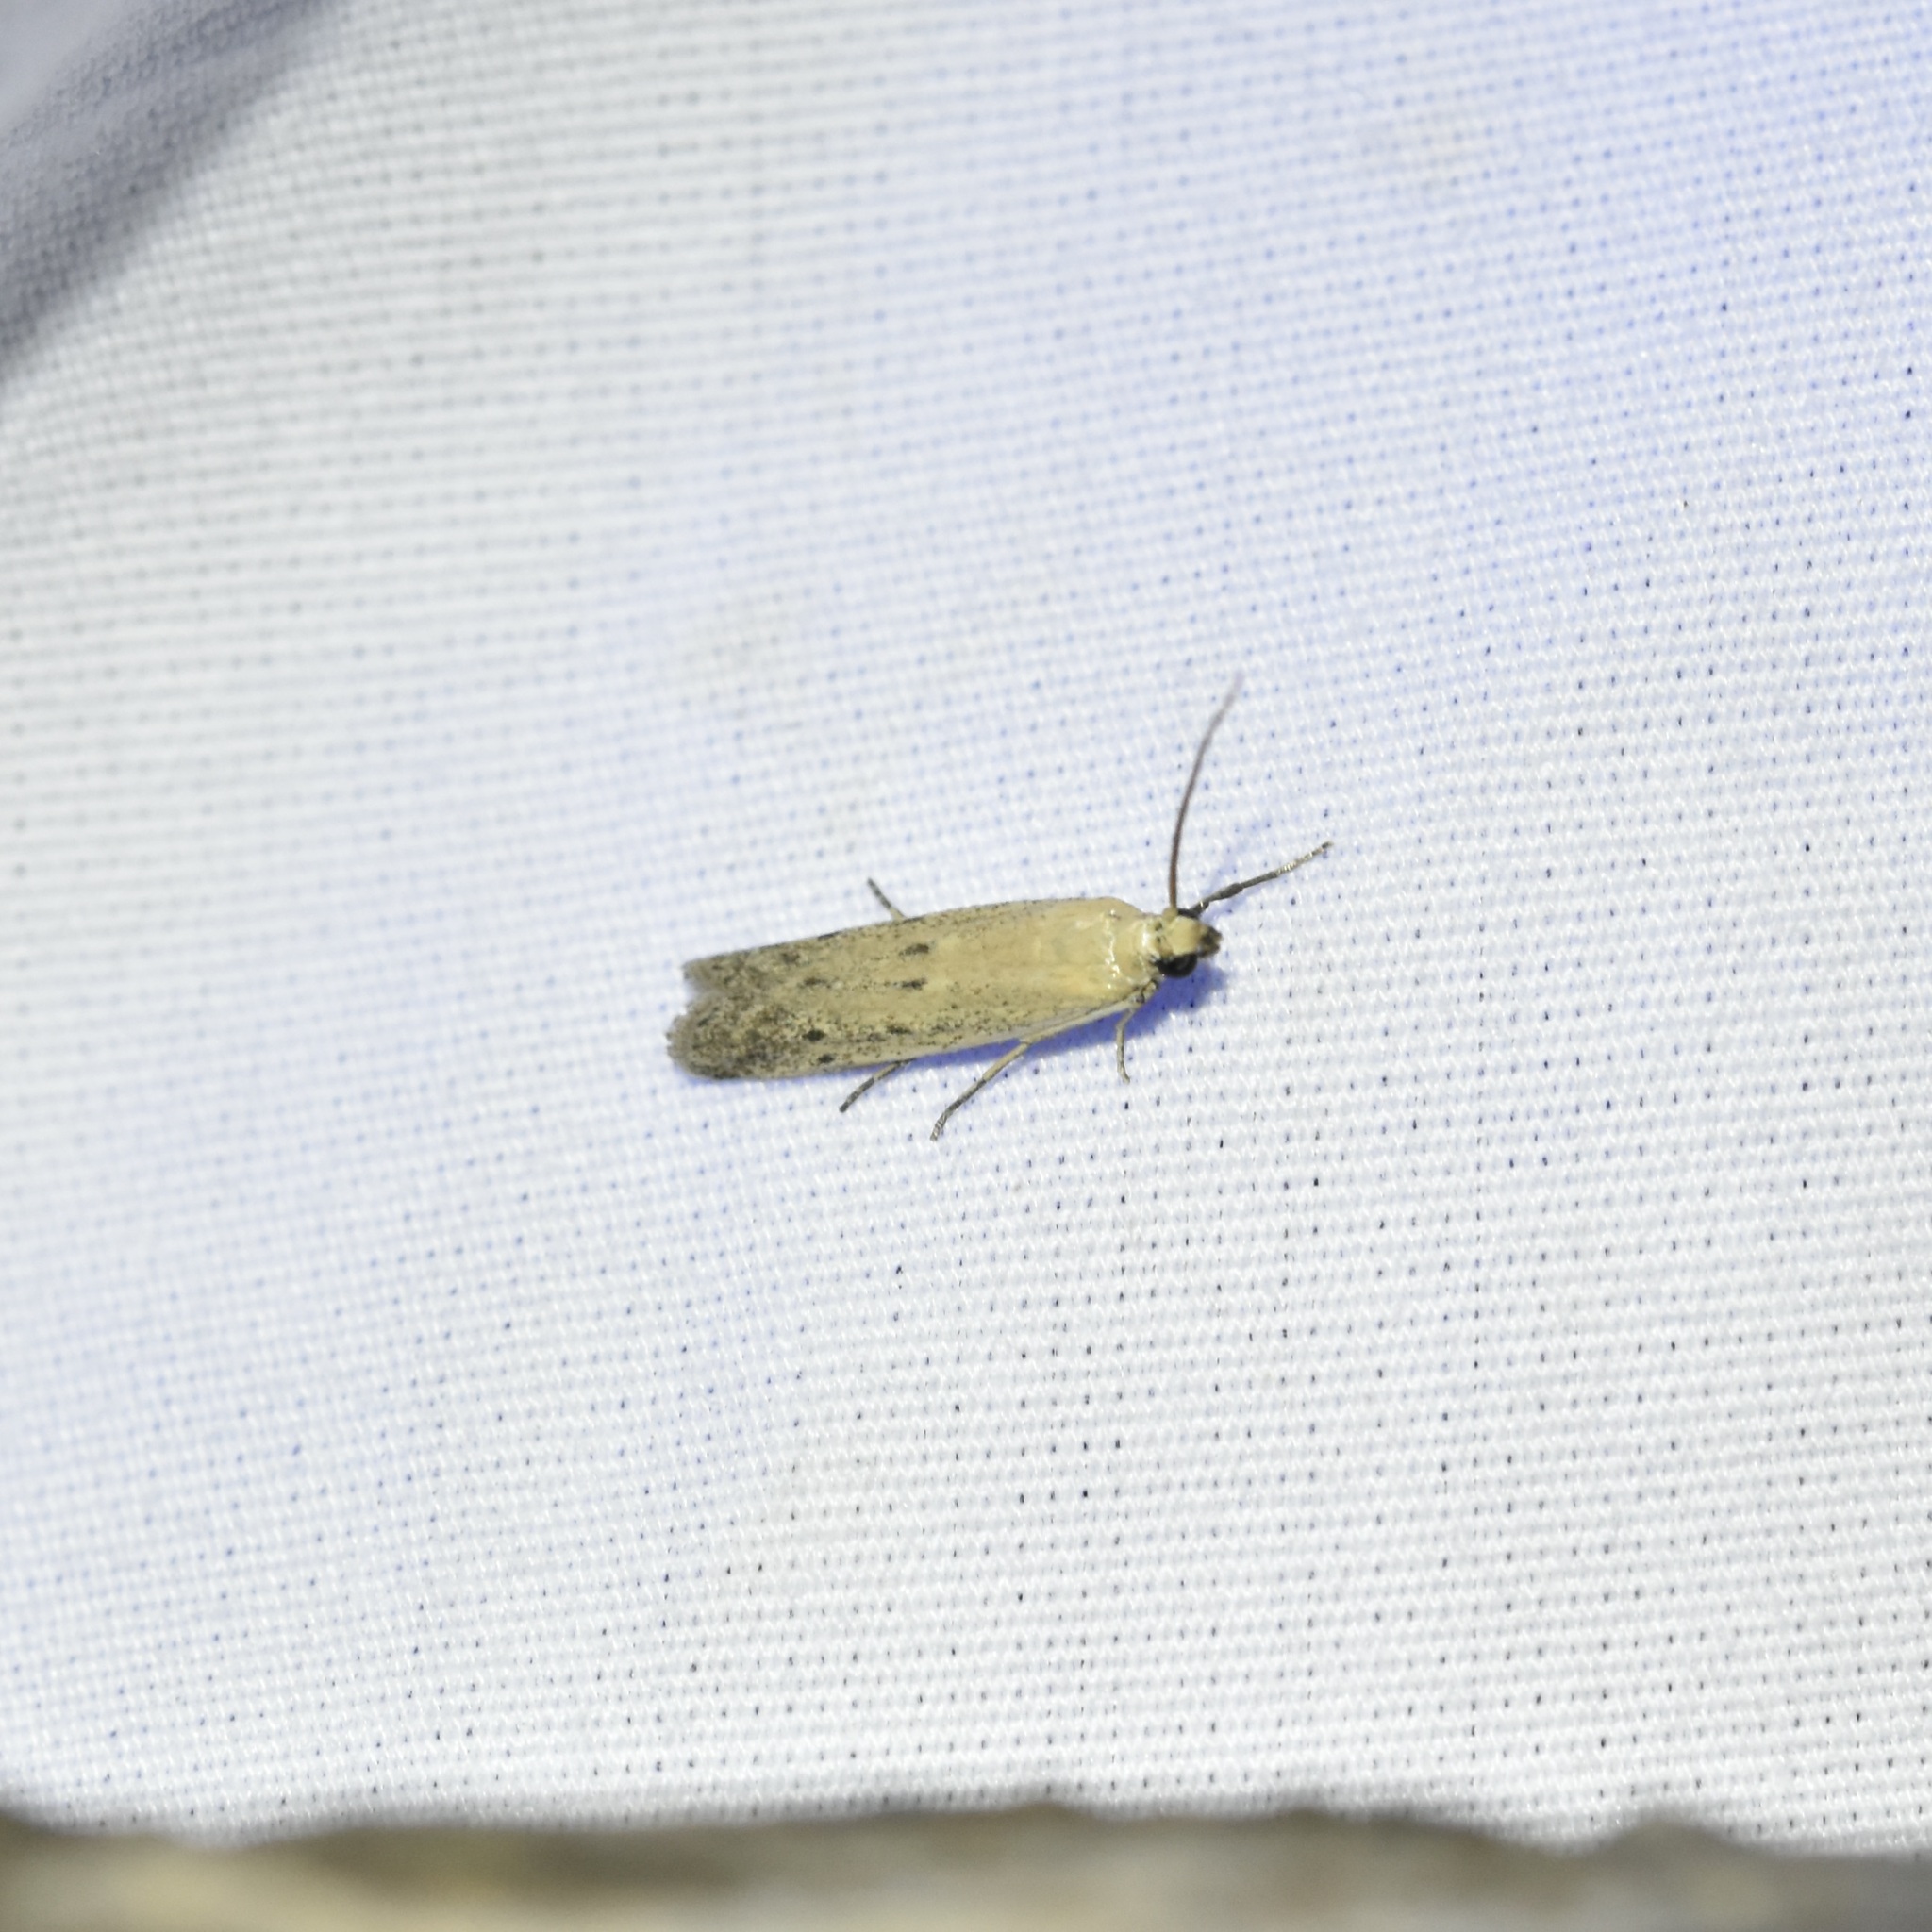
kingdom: Animalia
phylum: Arthropoda
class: Insecta
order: Lepidoptera
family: Pyralidae
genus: Homoeosoma
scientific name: Homoeosoma electella
